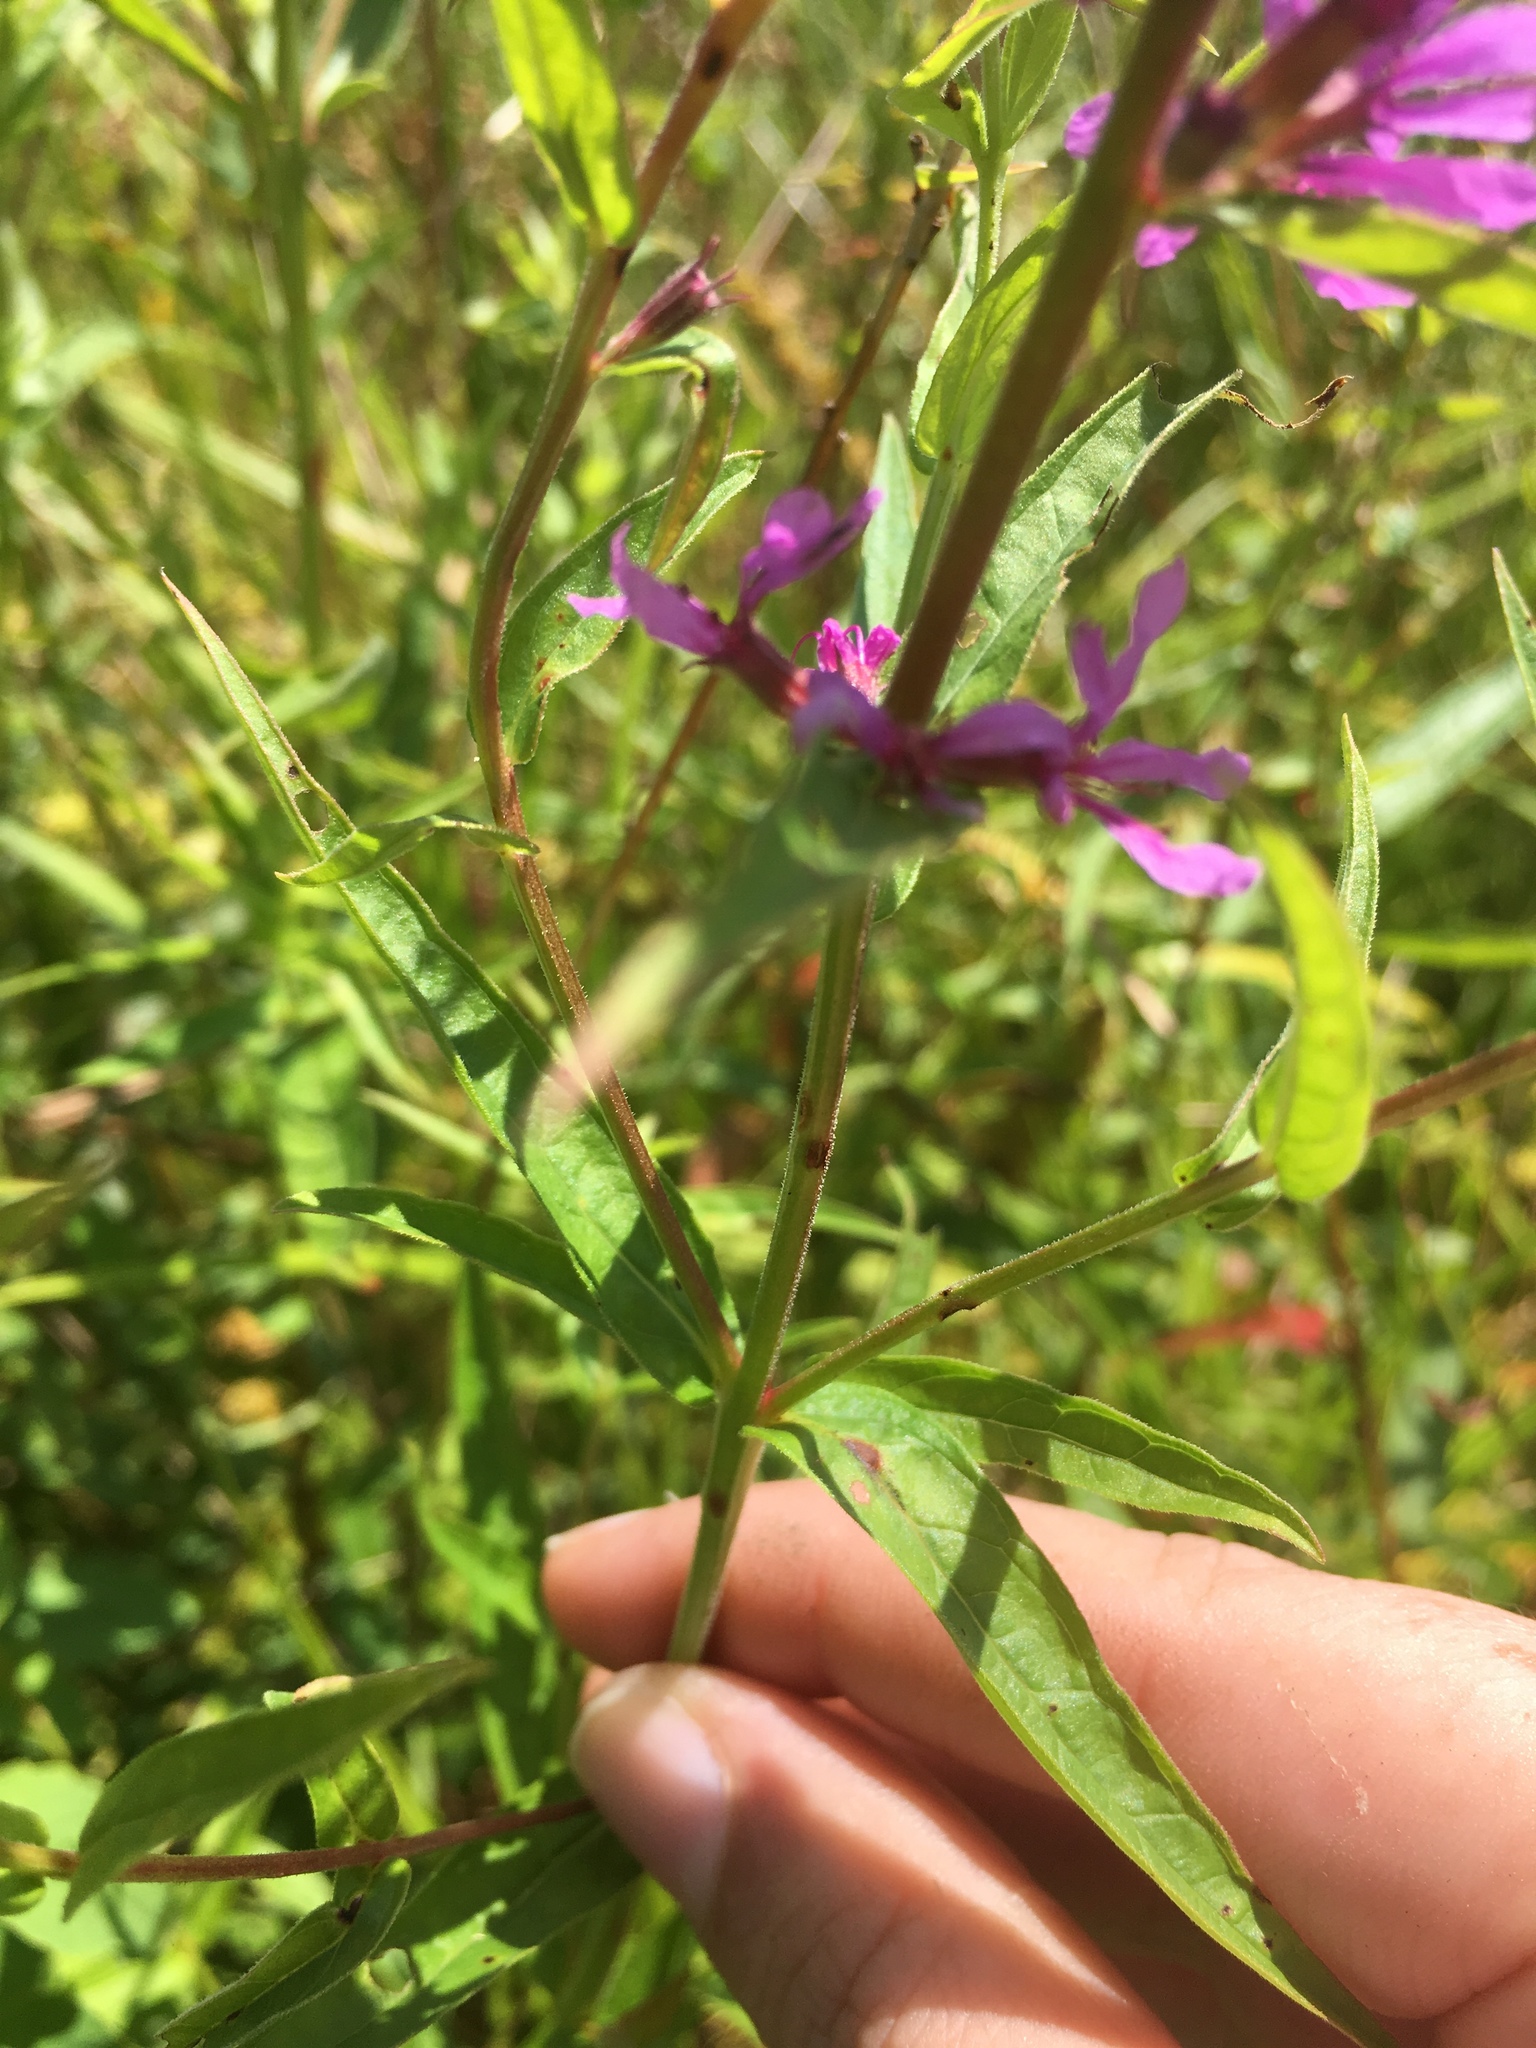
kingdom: Plantae
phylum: Tracheophyta
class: Magnoliopsida
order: Myrtales
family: Lythraceae
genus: Lythrum
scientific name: Lythrum salicaria
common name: Purple loosestrife
